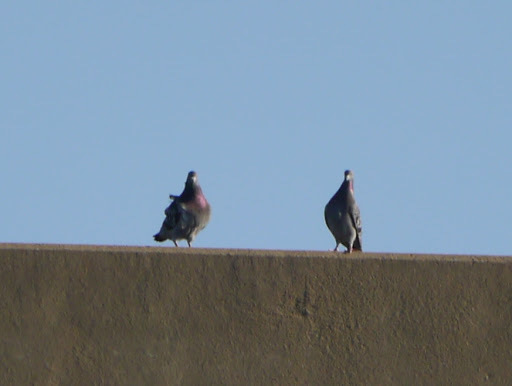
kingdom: Animalia
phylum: Chordata
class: Aves
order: Columbiformes
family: Columbidae
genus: Columba
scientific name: Columba livia
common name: Rock pigeon
